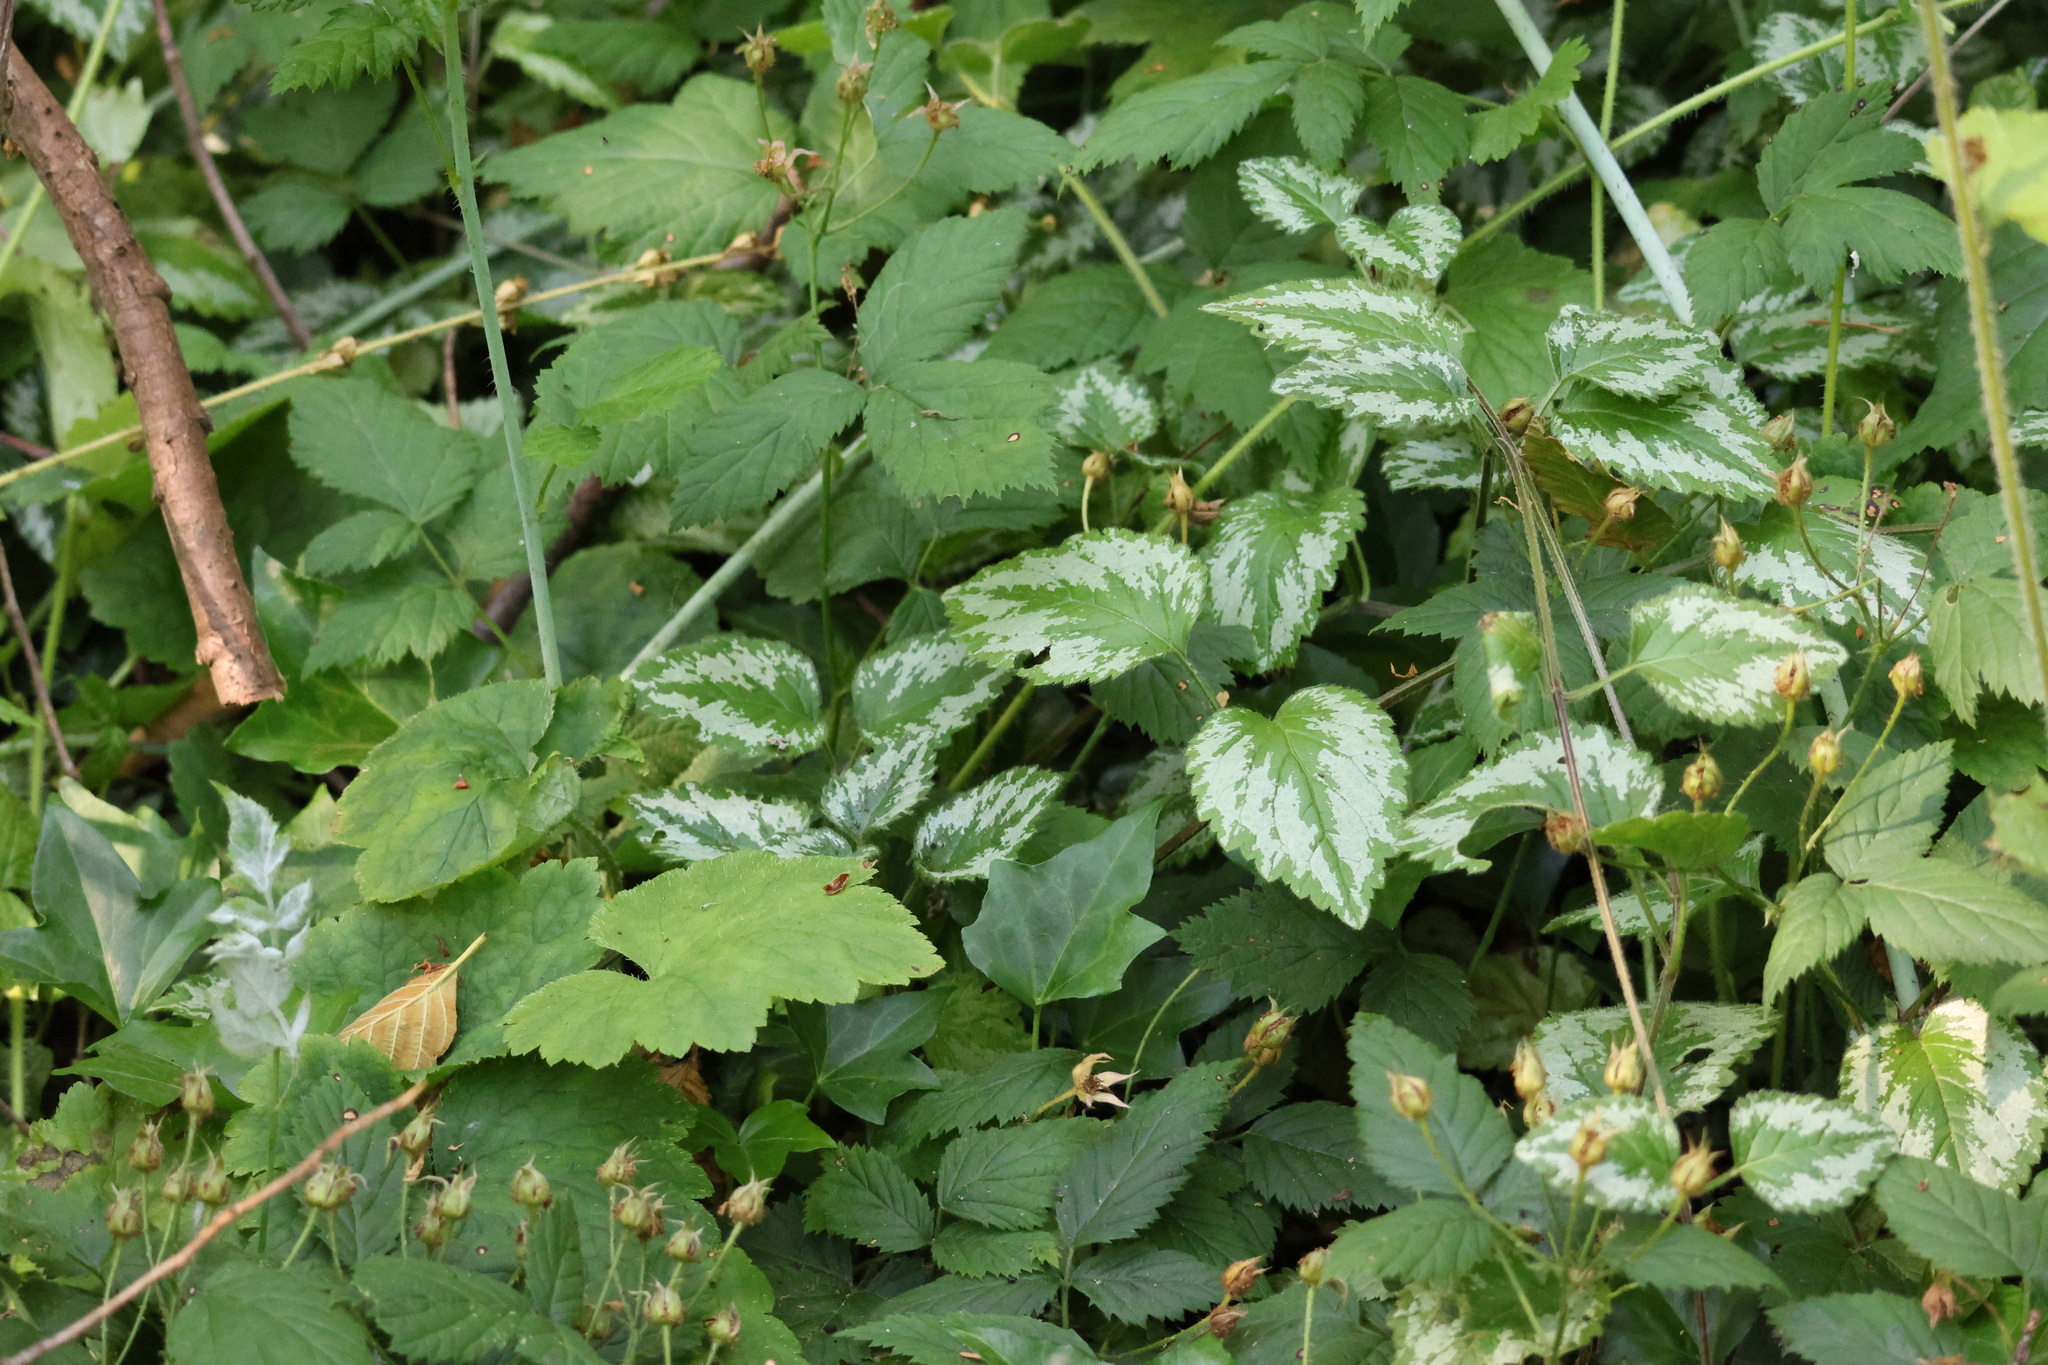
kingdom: Plantae
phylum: Tracheophyta
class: Magnoliopsida
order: Lamiales
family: Lamiaceae
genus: Lamium
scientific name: Lamium galeobdolon
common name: Yellow archangel
